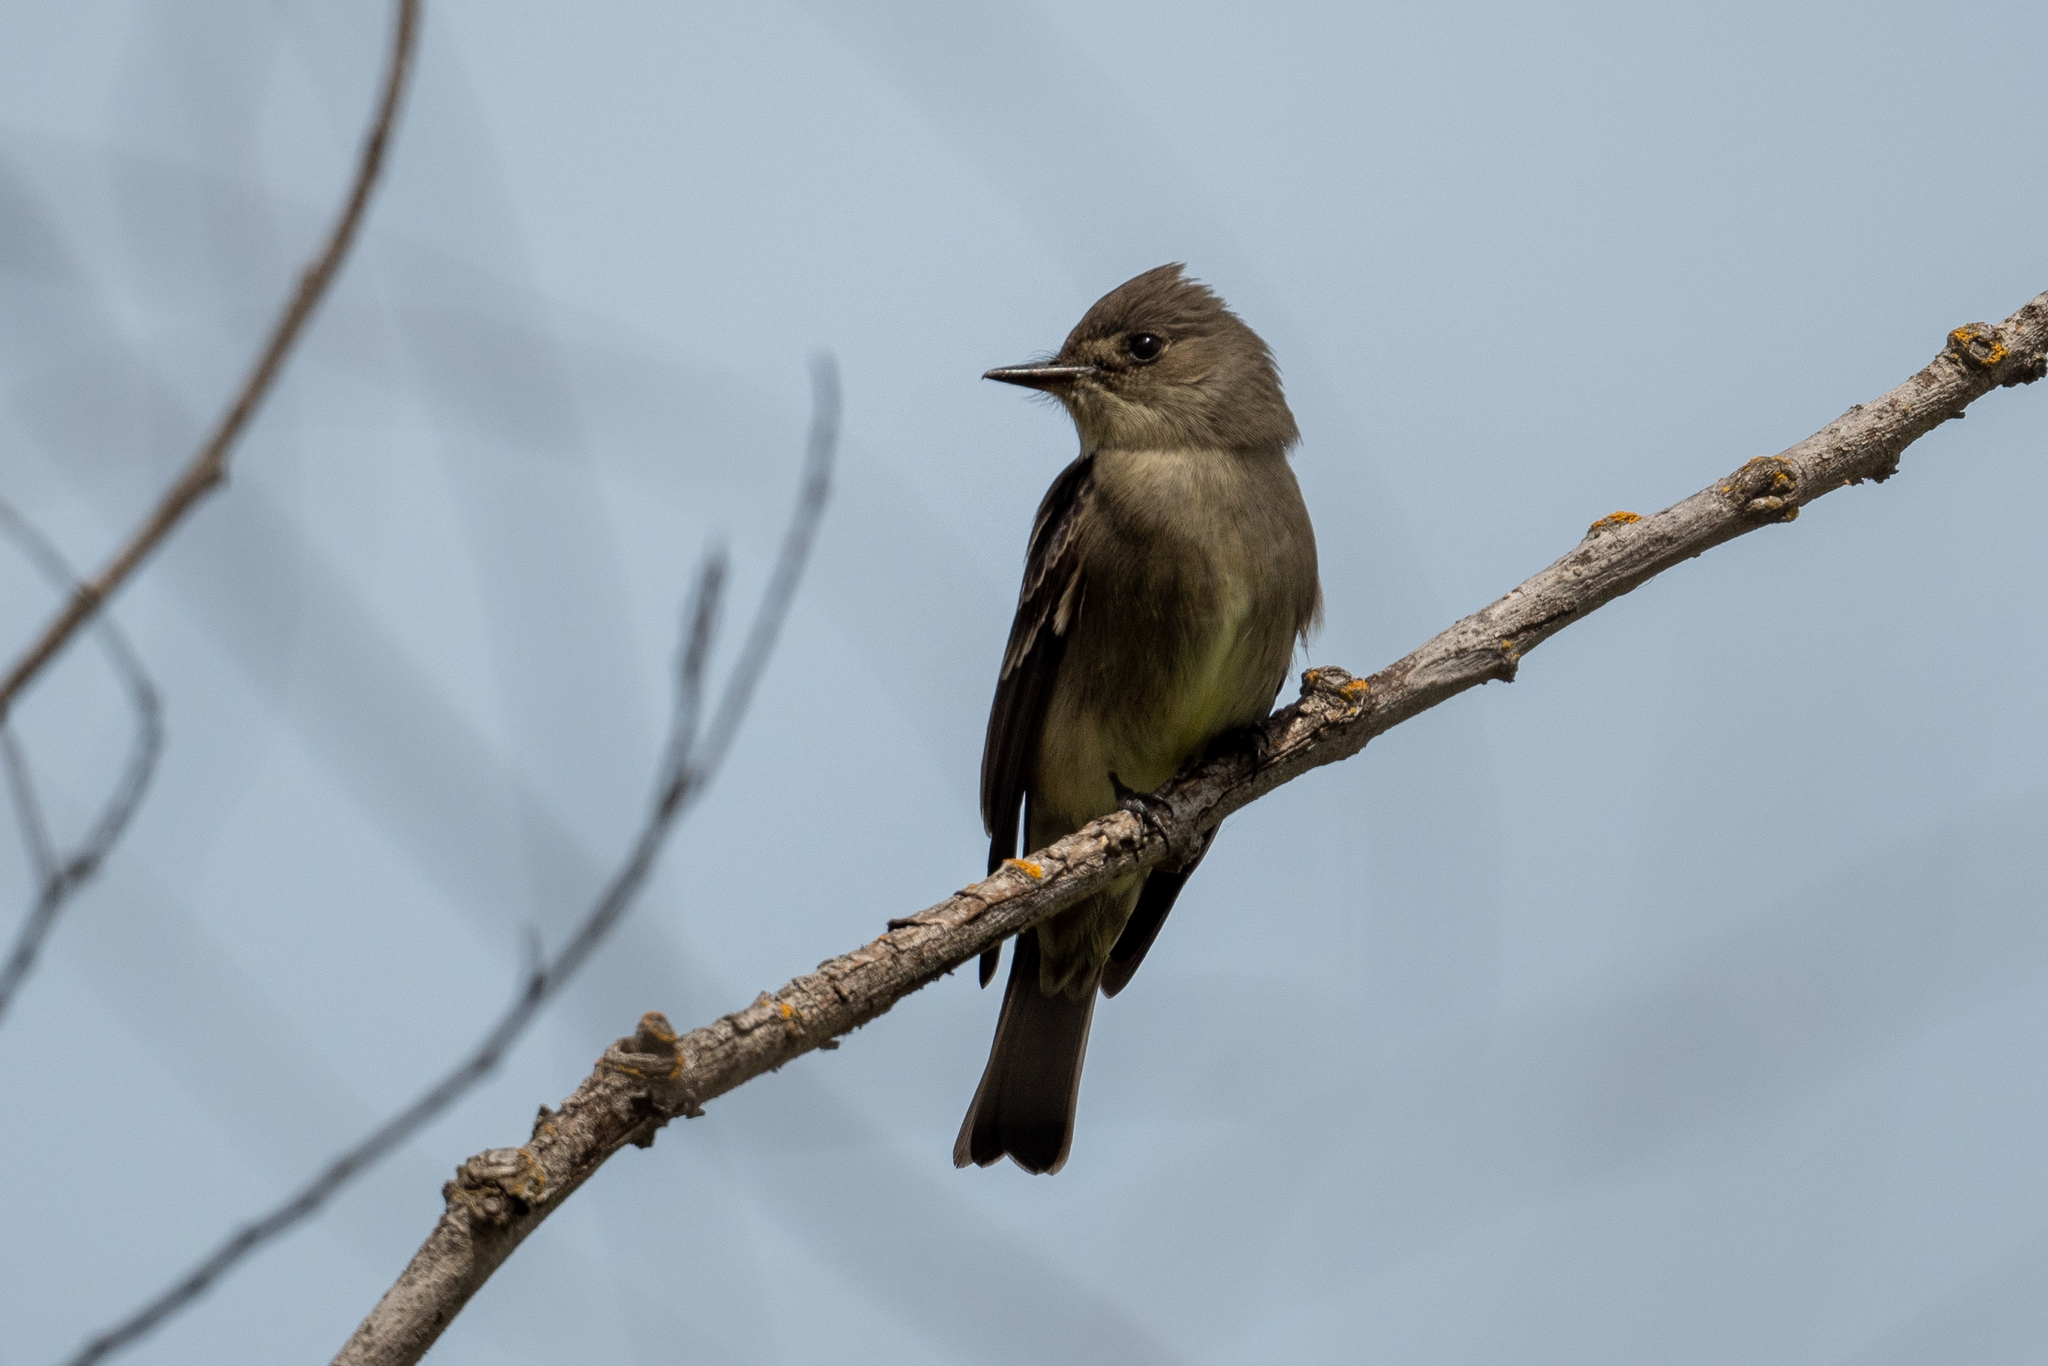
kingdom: Animalia
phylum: Chordata
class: Aves
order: Passeriformes
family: Tyrannidae
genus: Contopus
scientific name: Contopus sordidulus
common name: Western wood-pewee
